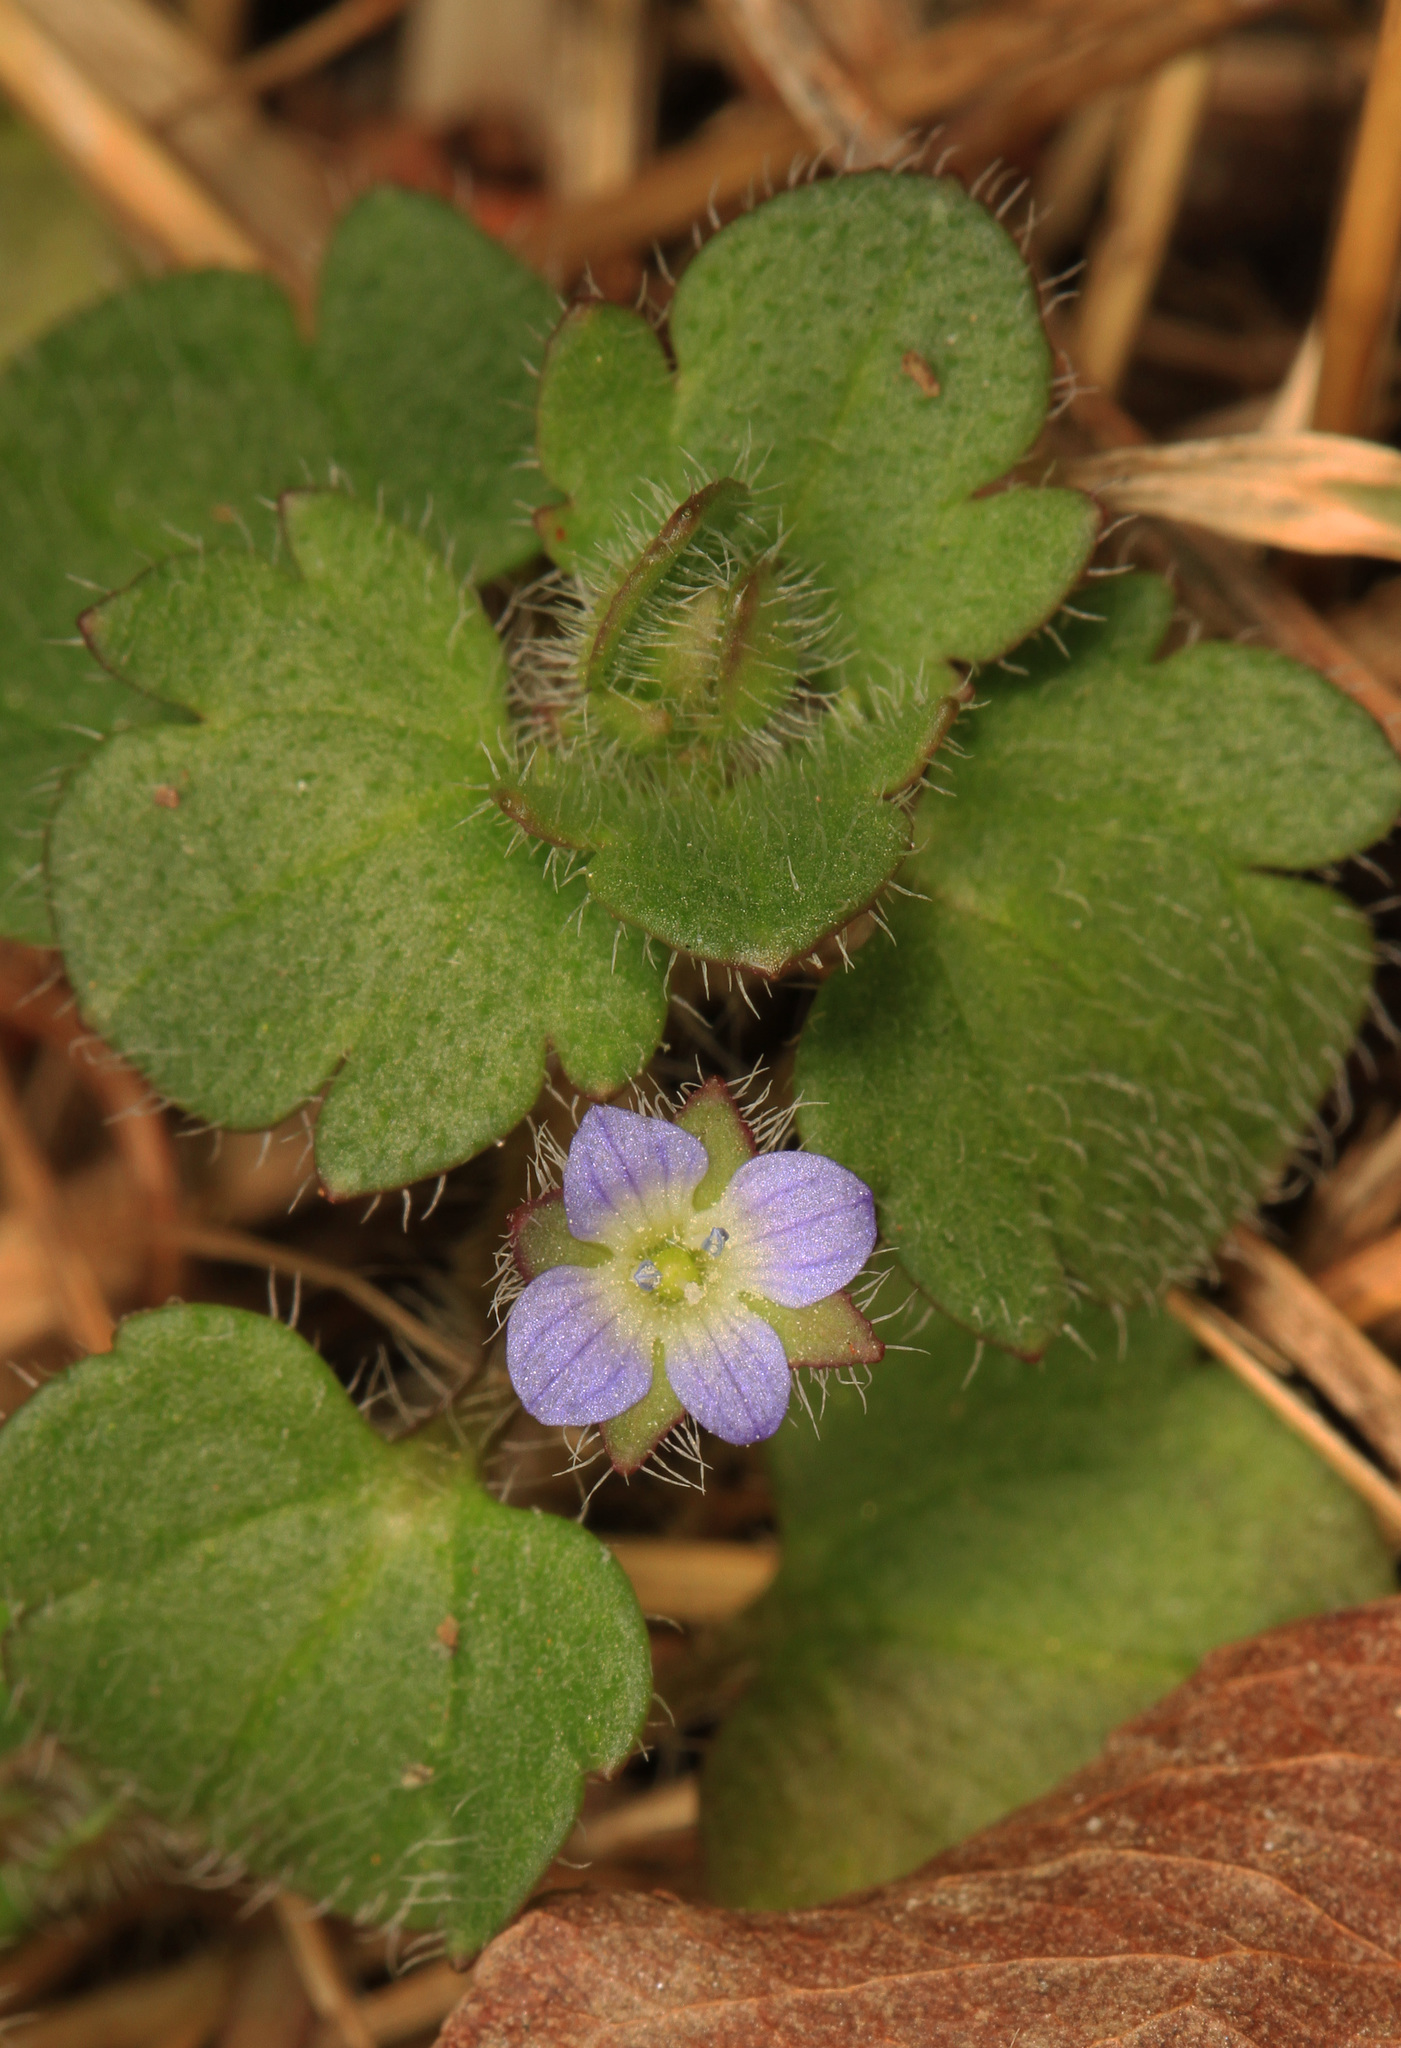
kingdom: Plantae
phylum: Tracheophyta
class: Magnoliopsida
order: Lamiales
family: Plantaginaceae
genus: Veronica
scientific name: Veronica hederifolia
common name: Ivy-leaved speedwell
